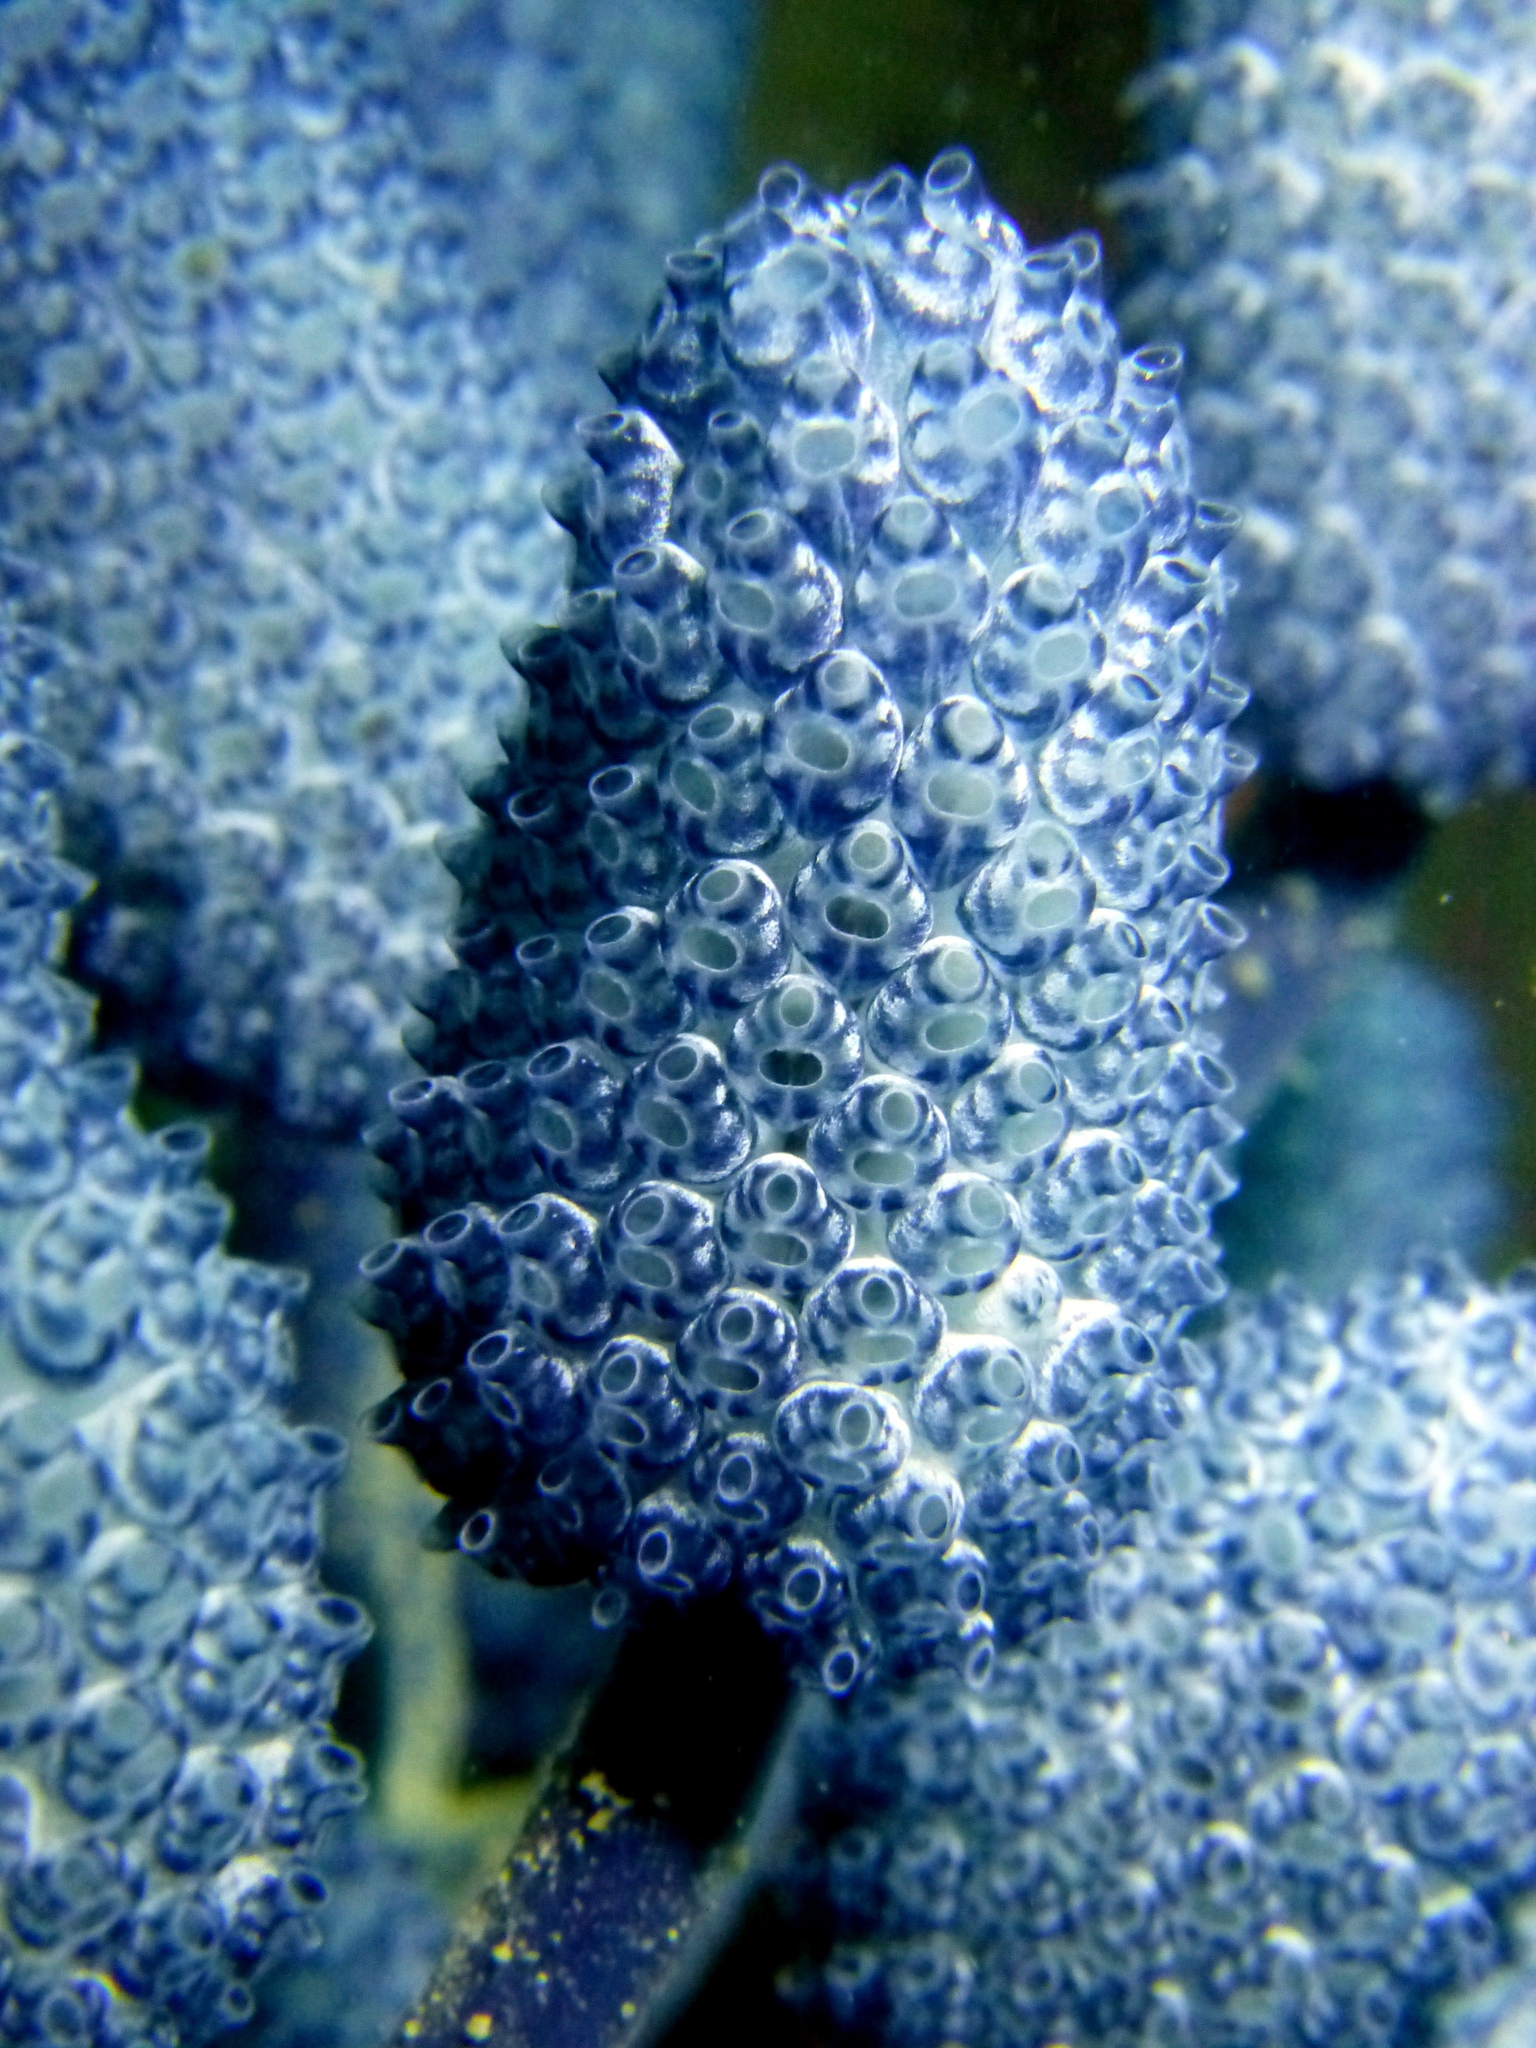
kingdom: Animalia
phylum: Chordata
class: Ascidiacea
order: Aplousobranchia
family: Clavelinidae
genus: Nephtheis
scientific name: Nephtheis fascicularis
